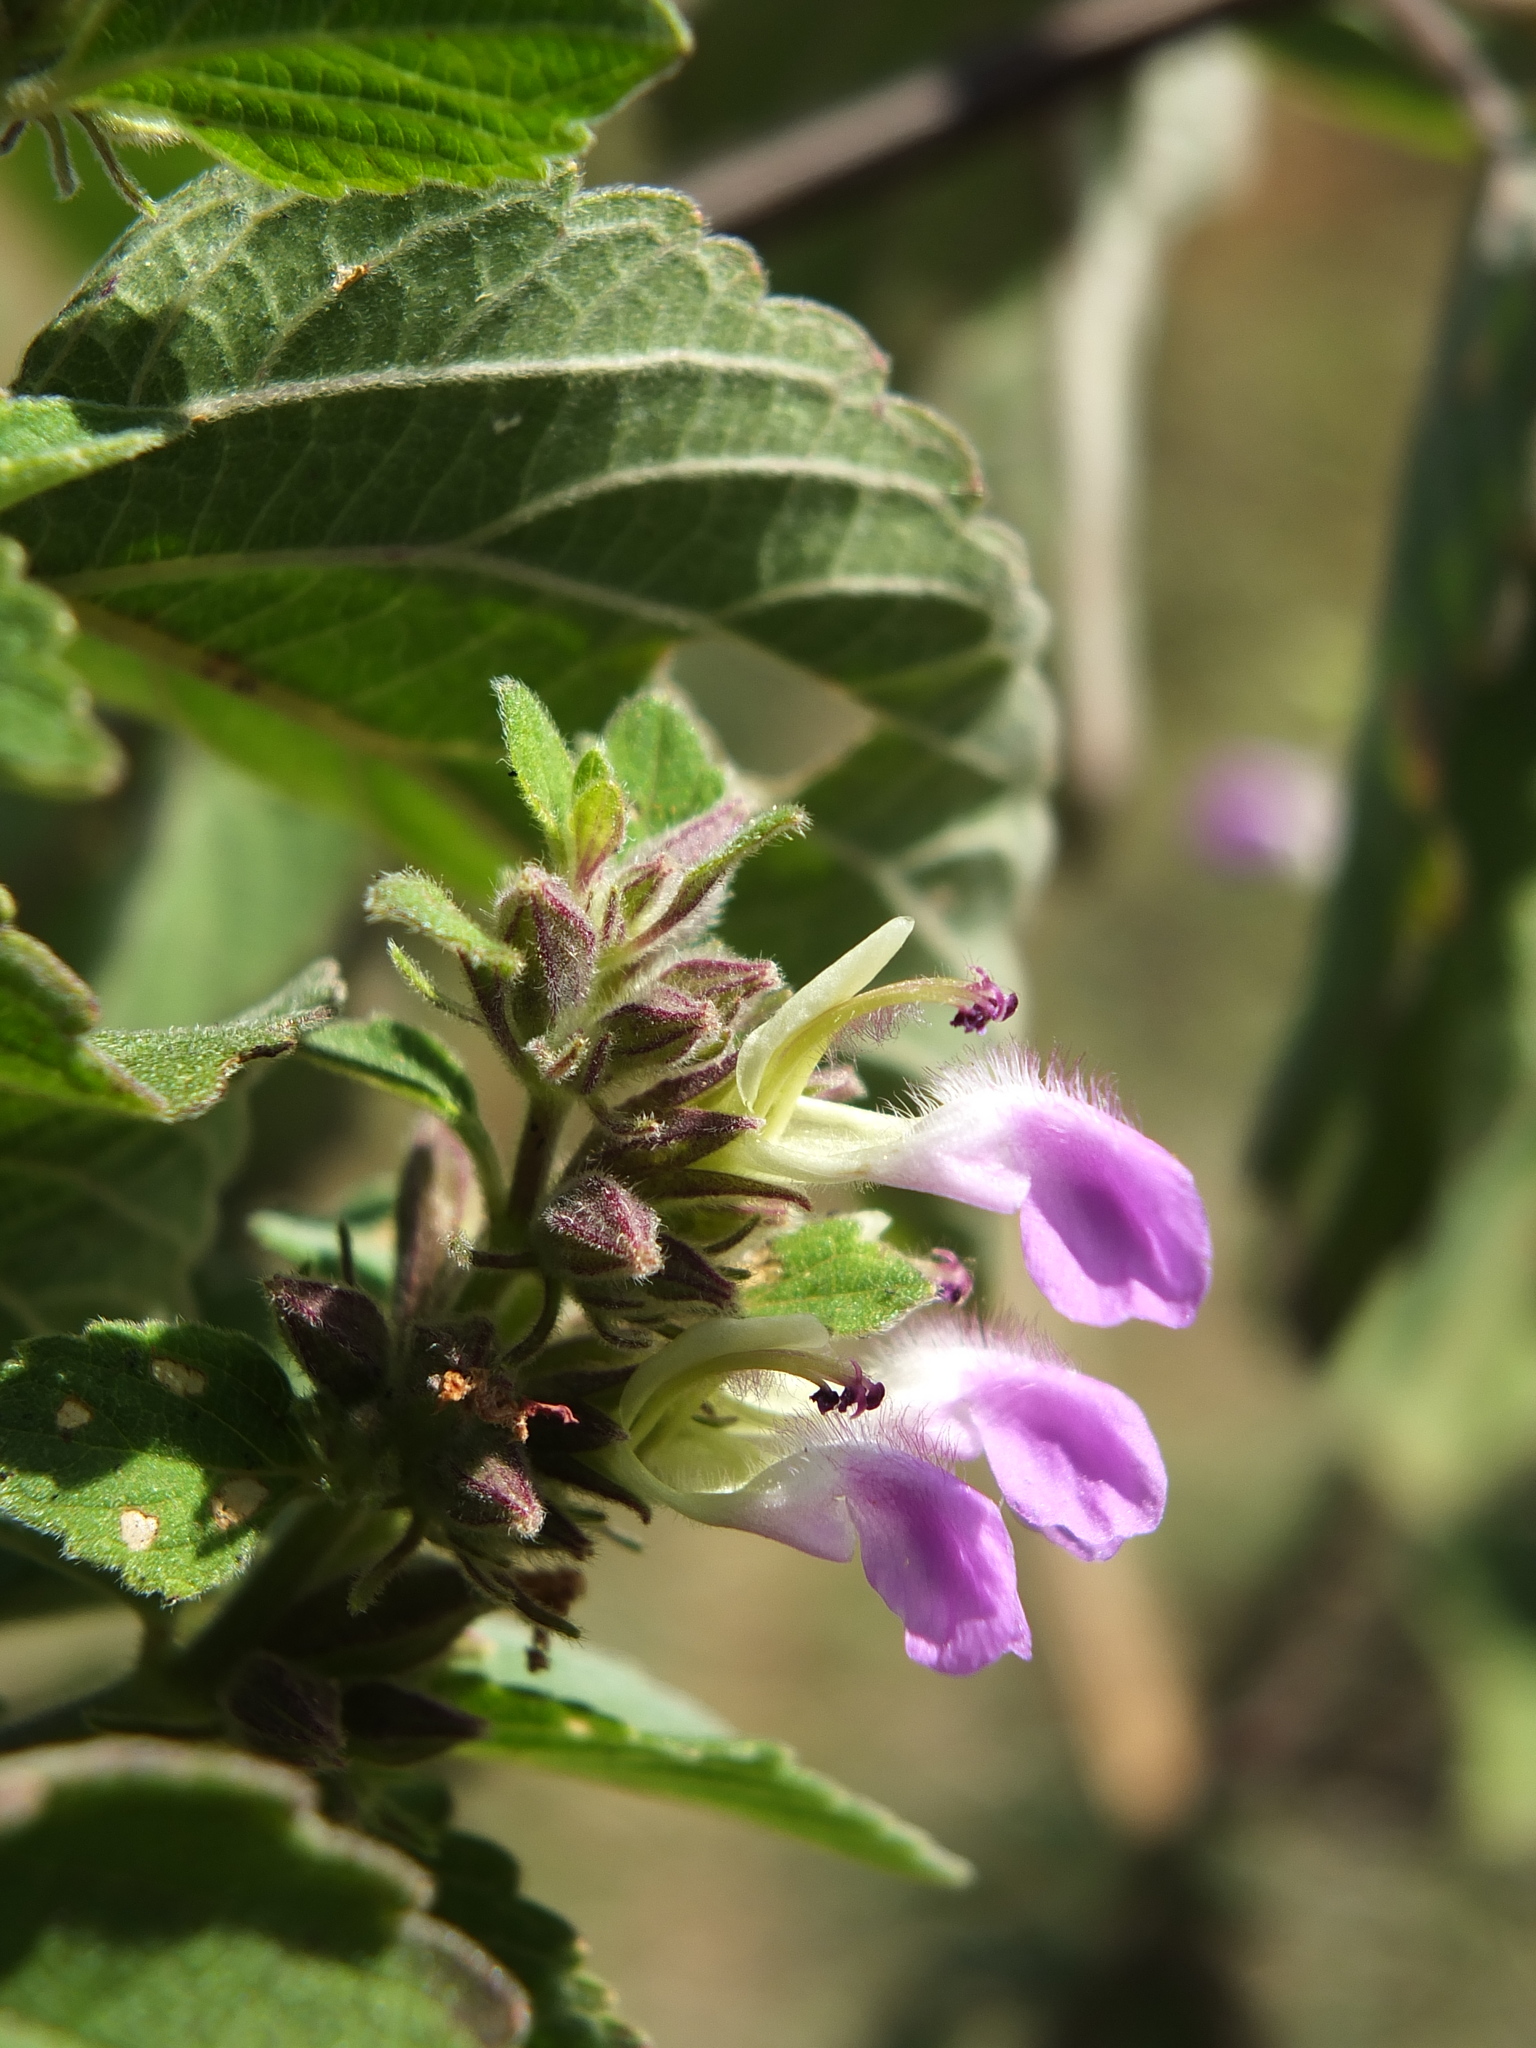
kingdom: Plantae
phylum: Tracheophyta
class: Magnoliopsida
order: Lamiales
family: Lamiaceae
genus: Anisomeles
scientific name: Anisomeles indica
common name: Catmint
